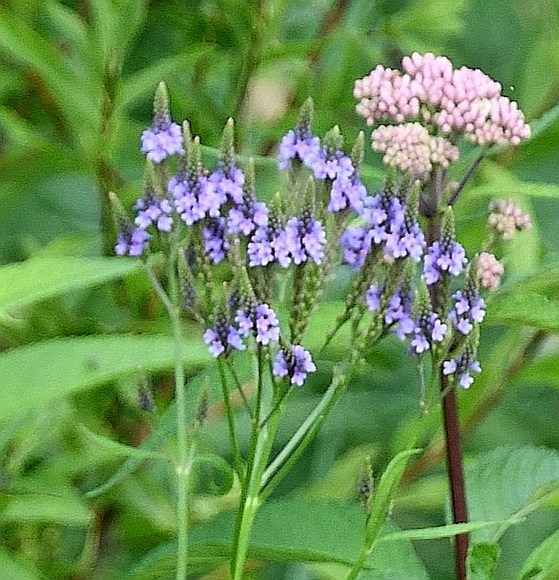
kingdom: Plantae
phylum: Tracheophyta
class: Magnoliopsida
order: Lamiales
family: Verbenaceae
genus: Verbena
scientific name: Verbena hastata
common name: American blue vervain
